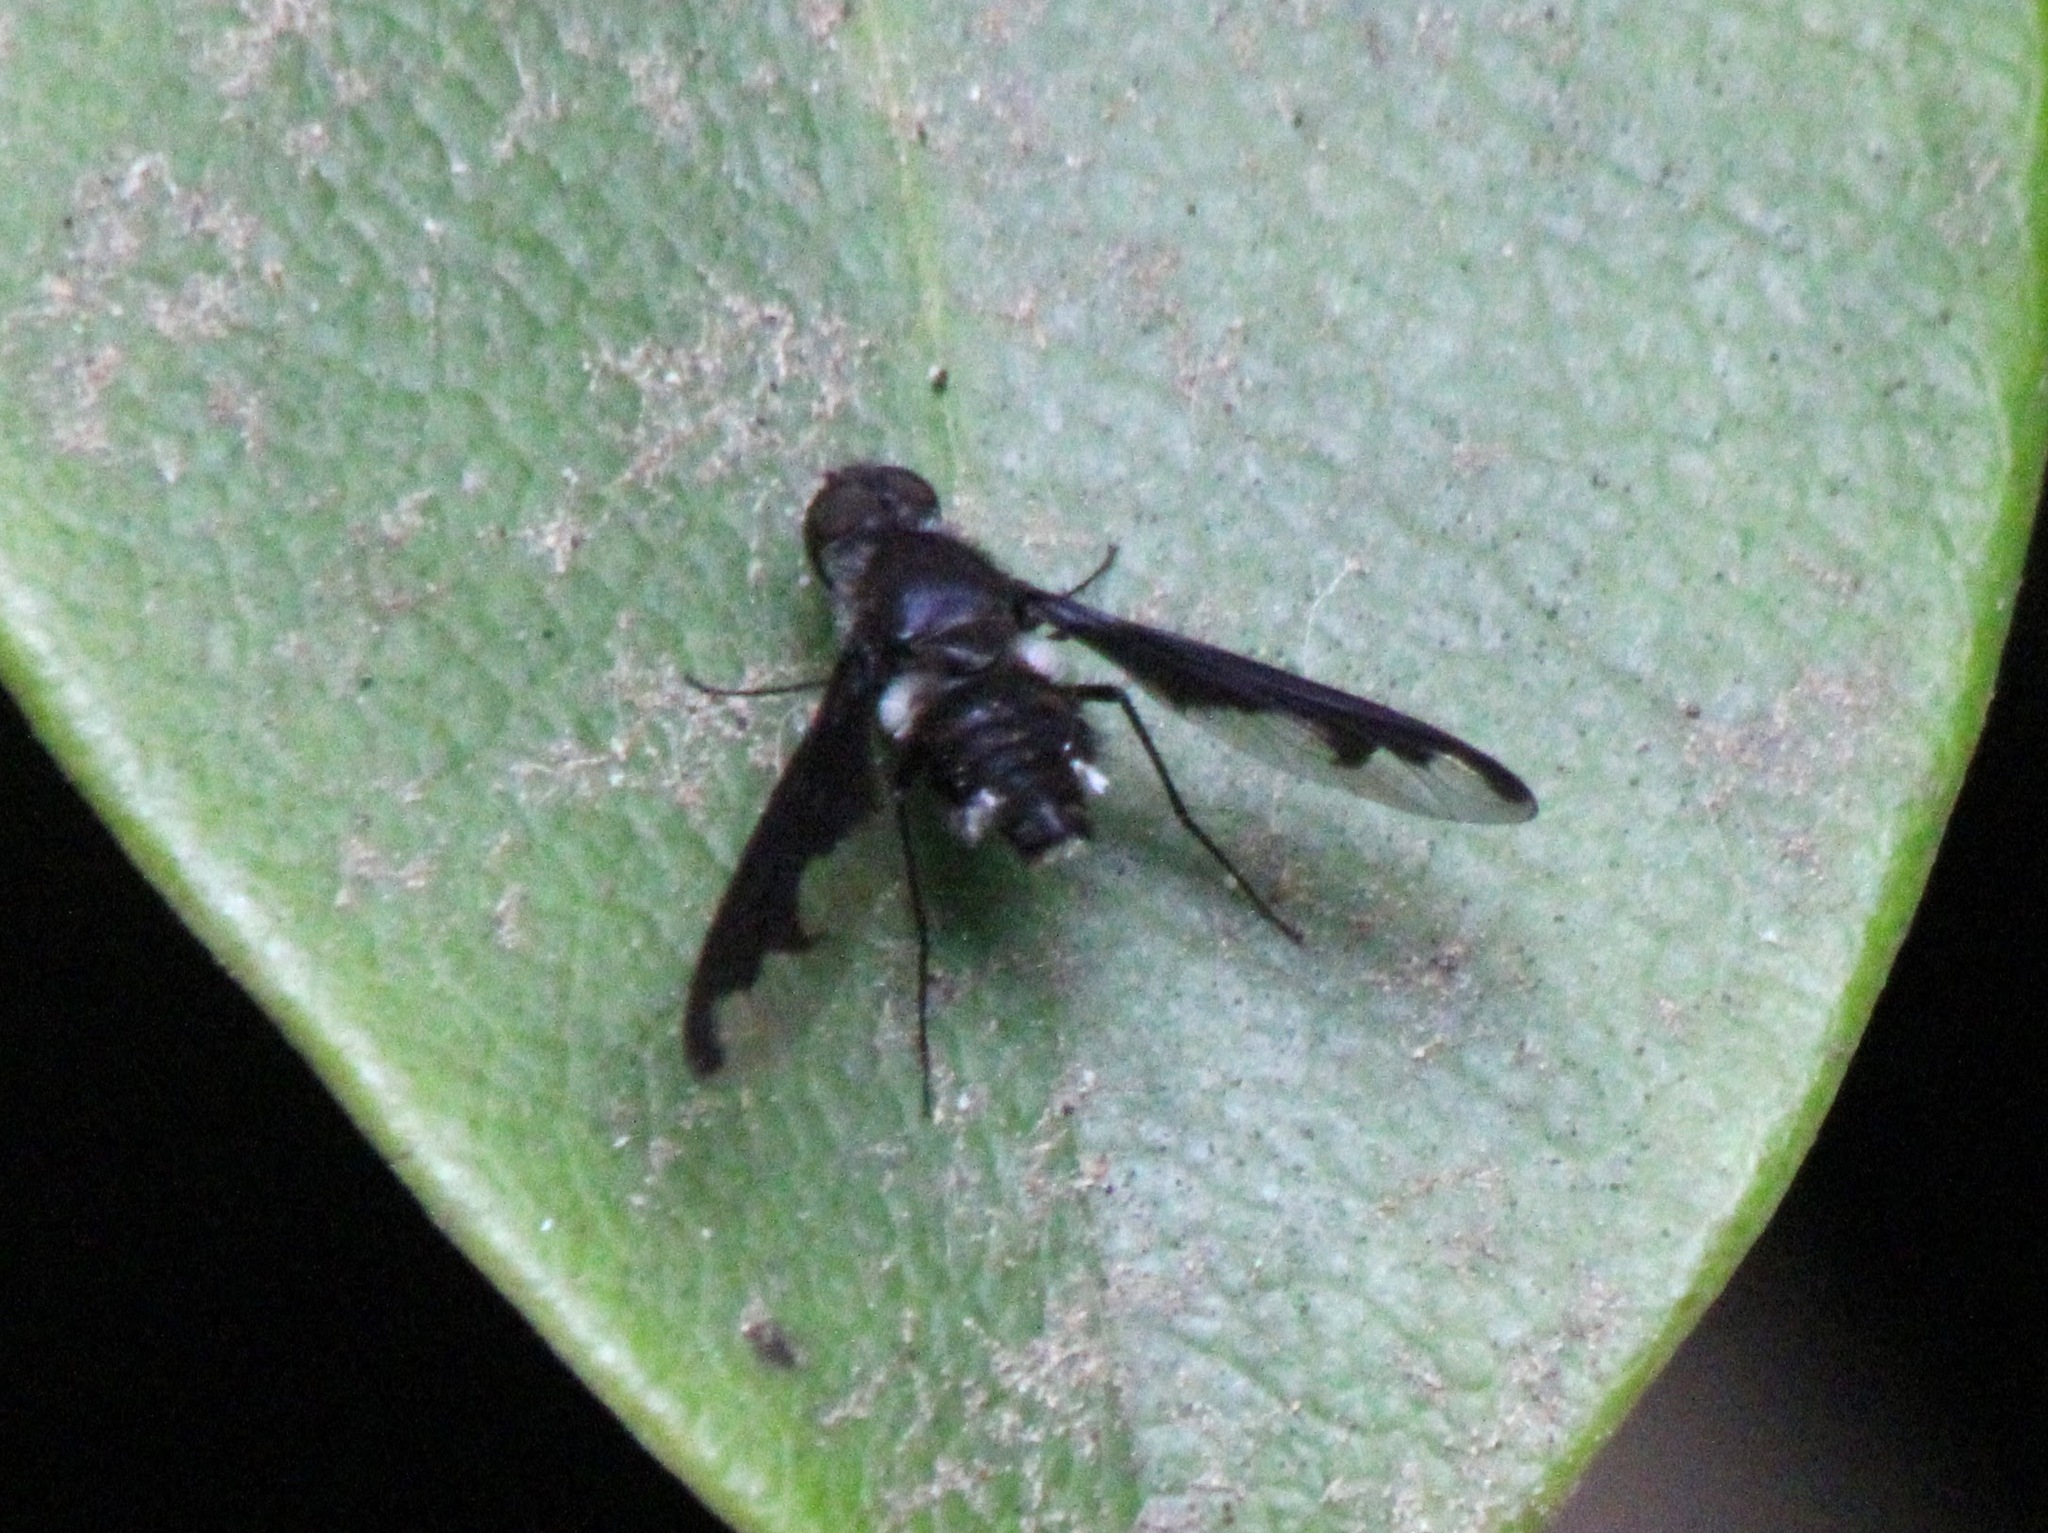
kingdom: Animalia
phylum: Arthropoda
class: Insecta
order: Diptera
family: Bombyliidae
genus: Anthrax
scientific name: Anthrax argyropygus
